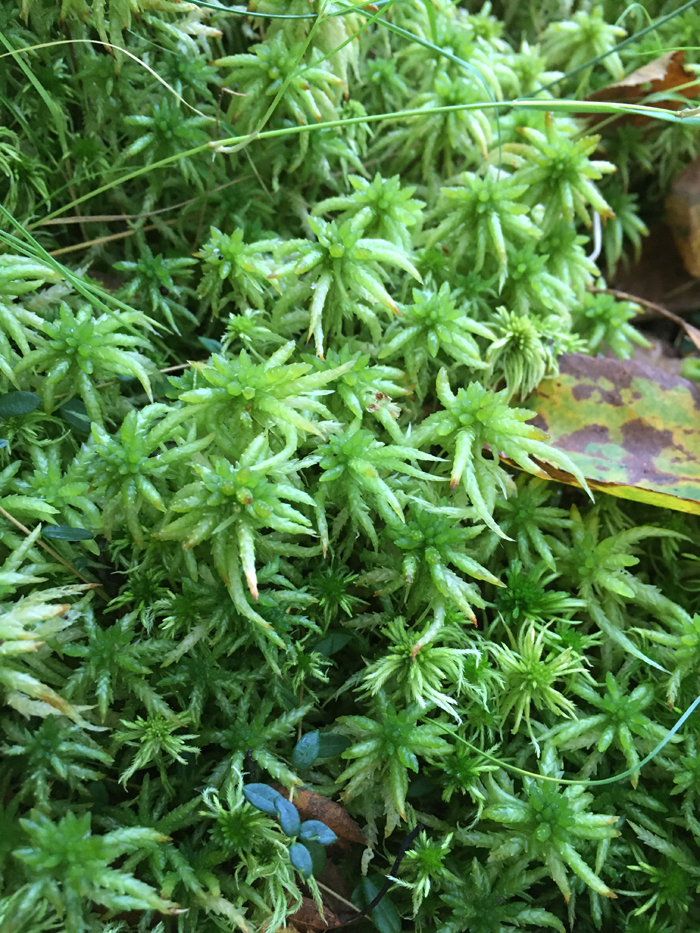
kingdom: Plantae
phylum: Bryophyta
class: Sphagnopsida
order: Sphagnales
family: Sphagnaceae
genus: Sphagnum
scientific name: Sphagnum palustre
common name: Blunt-leaved bog-moss
